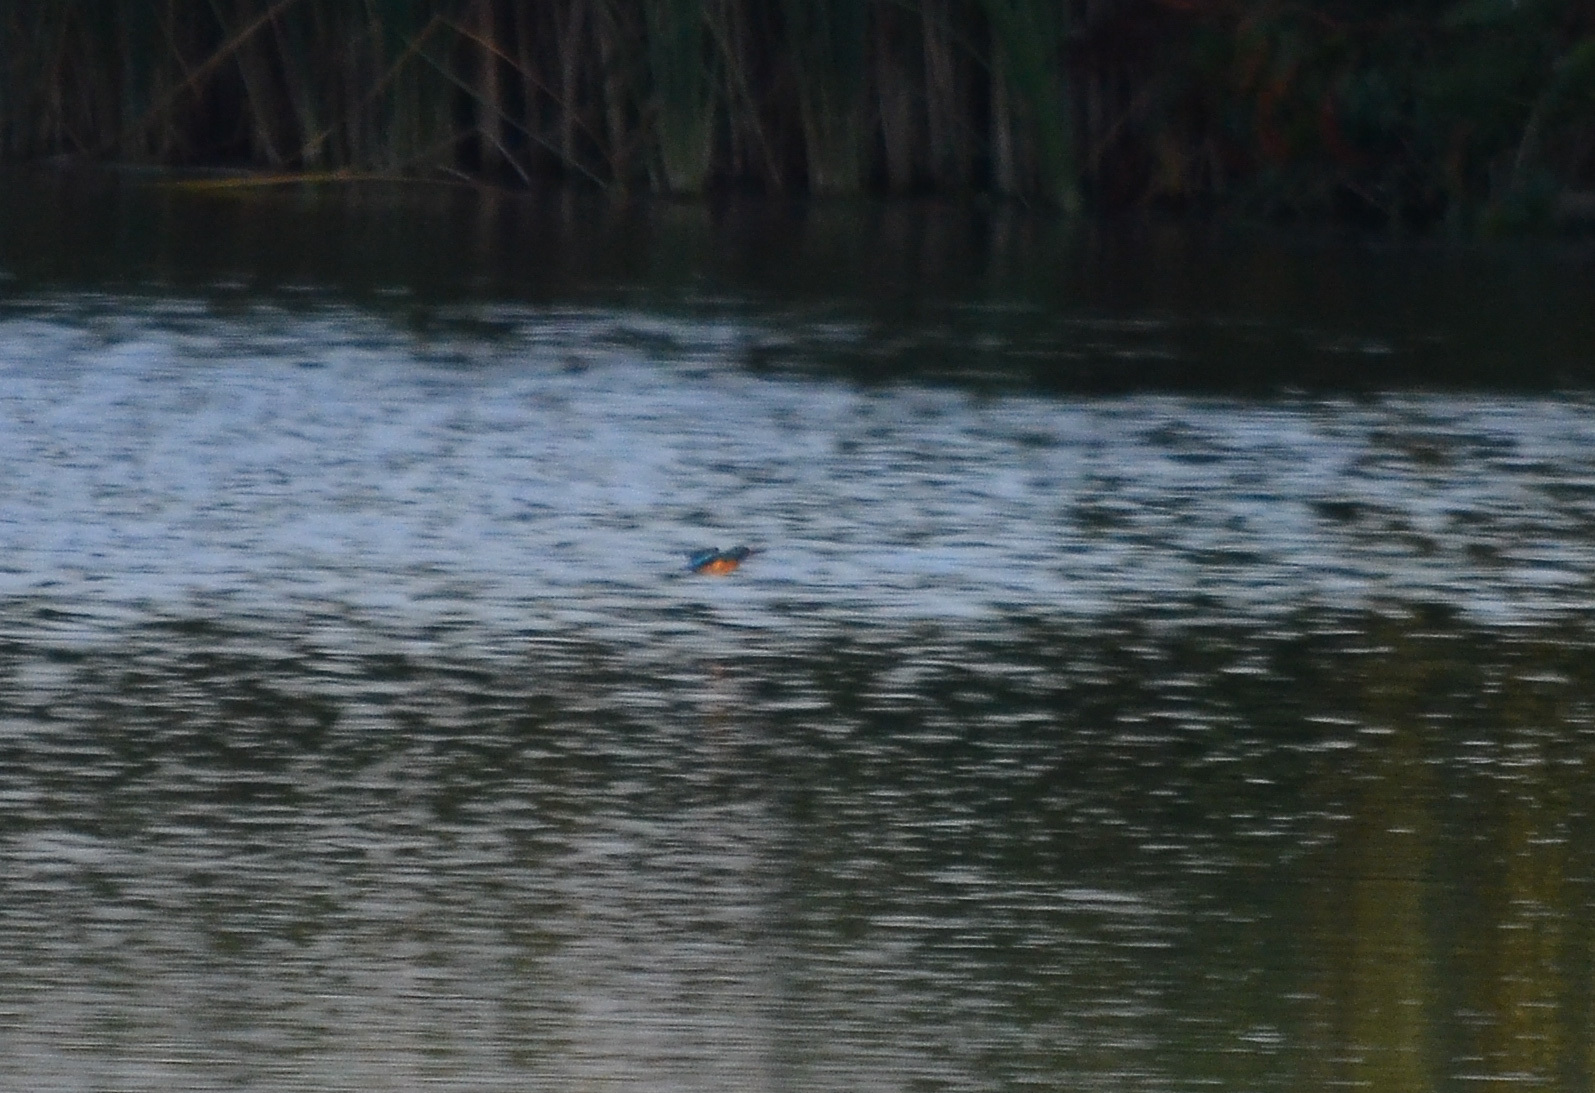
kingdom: Animalia
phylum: Chordata
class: Aves
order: Coraciiformes
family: Alcedinidae
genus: Alcedo
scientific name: Alcedo atthis
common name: Common kingfisher
